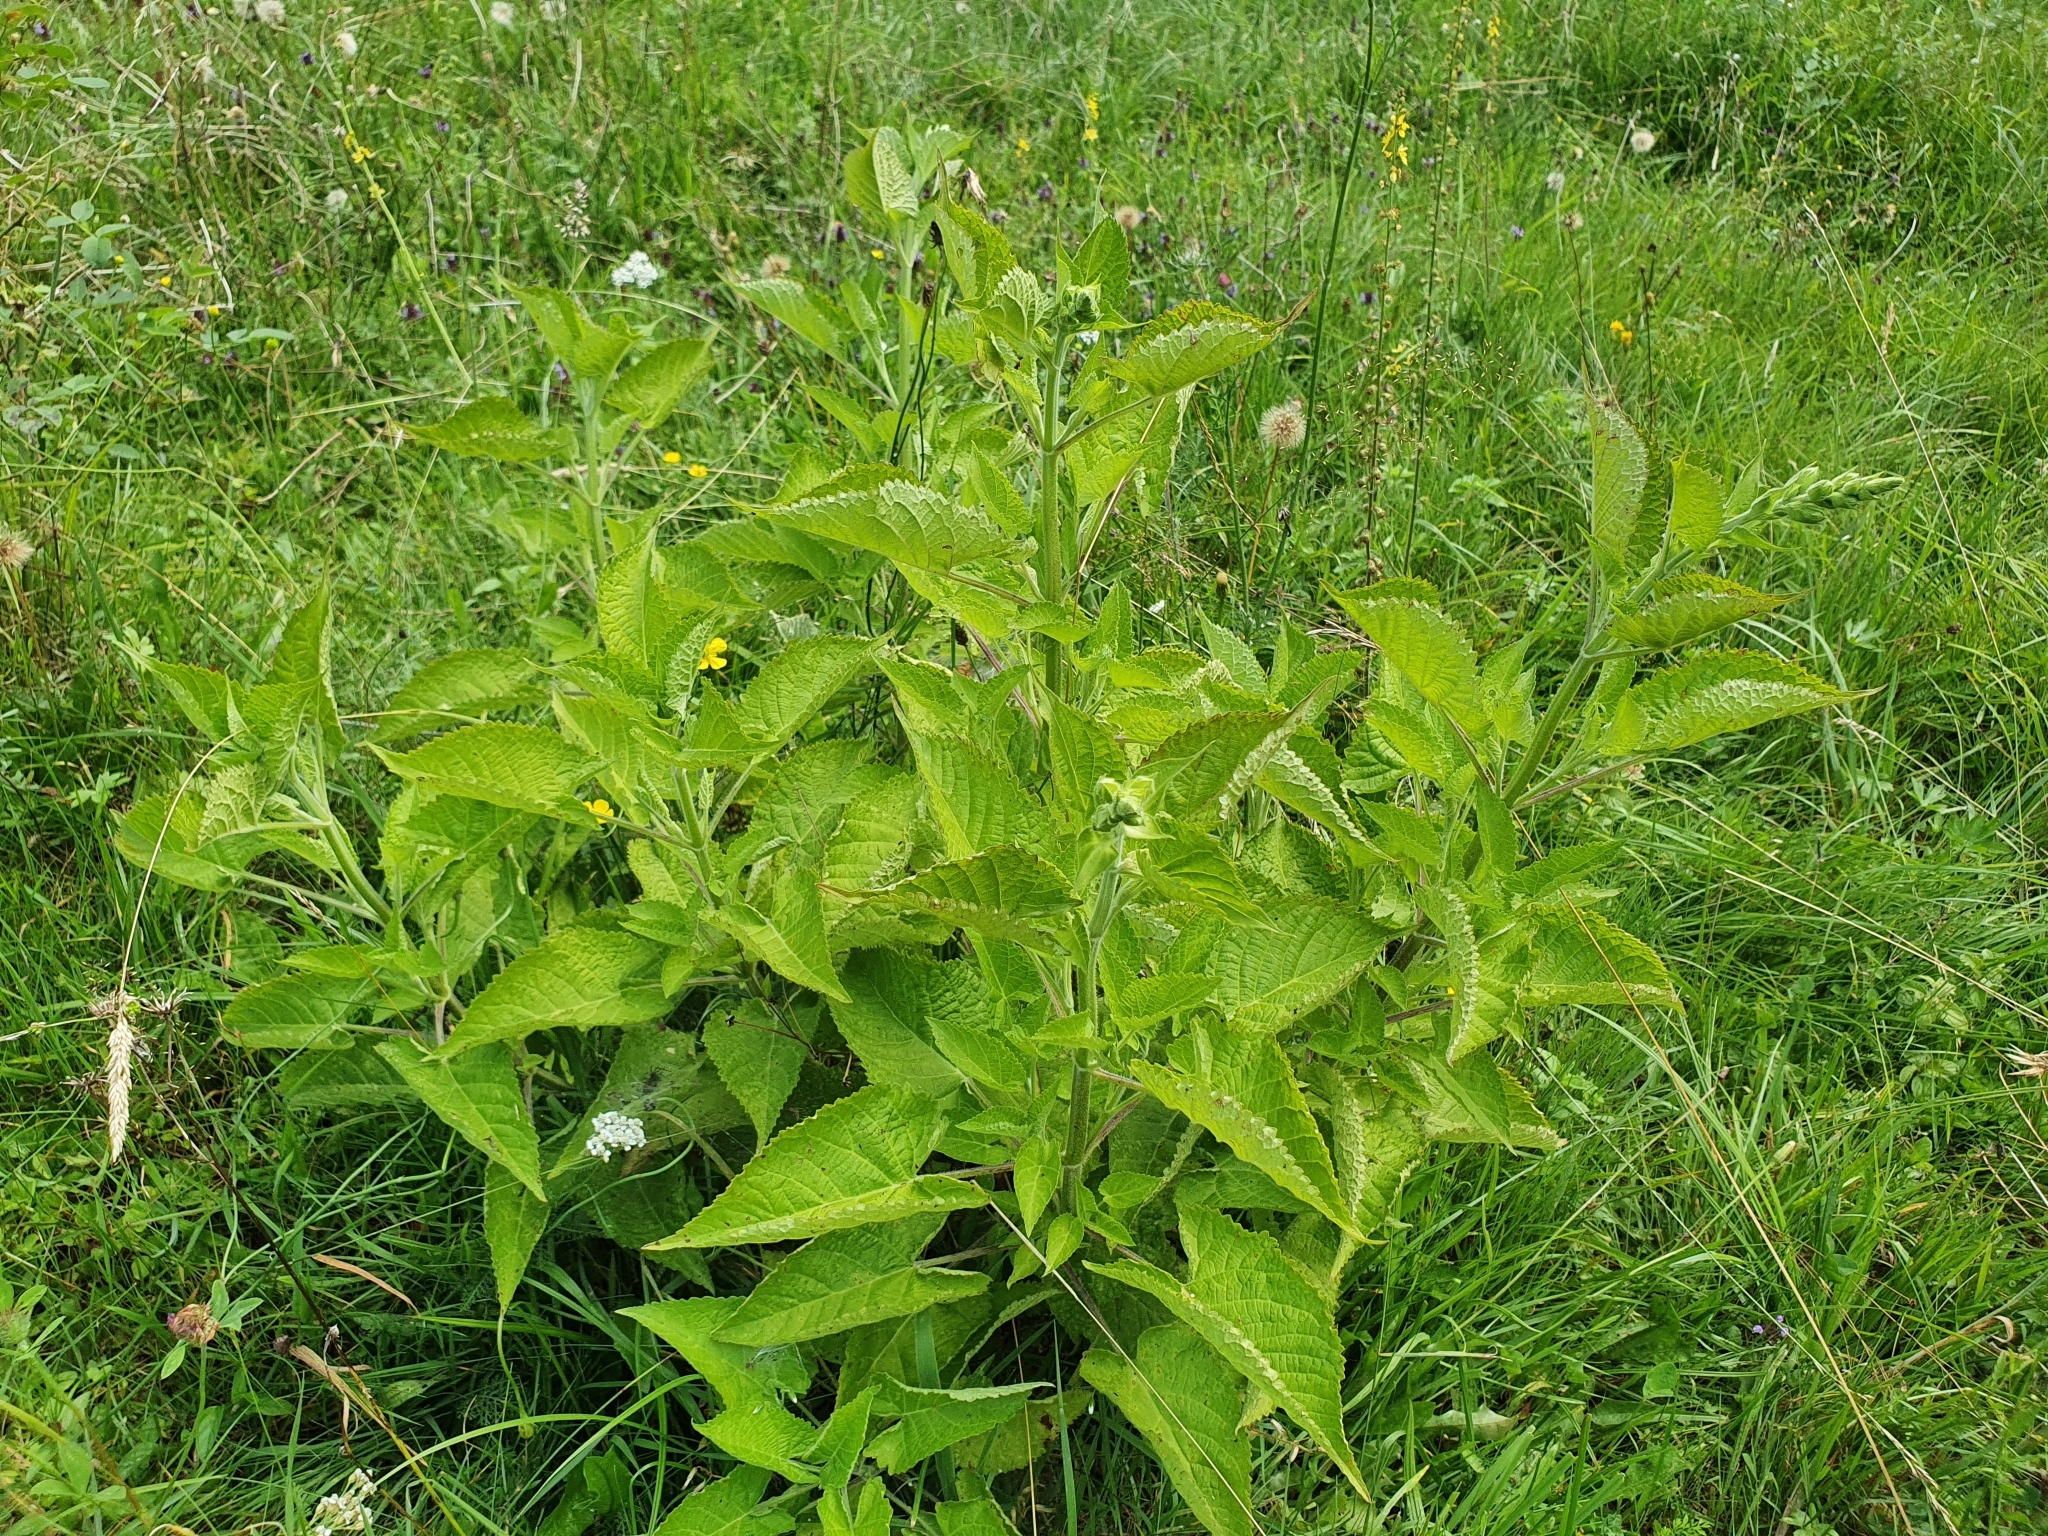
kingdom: Plantae
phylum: Tracheophyta
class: Magnoliopsida
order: Lamiales
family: Lamiaceae
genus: Salvia
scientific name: Salvia glutinosa
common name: Sticky clary
